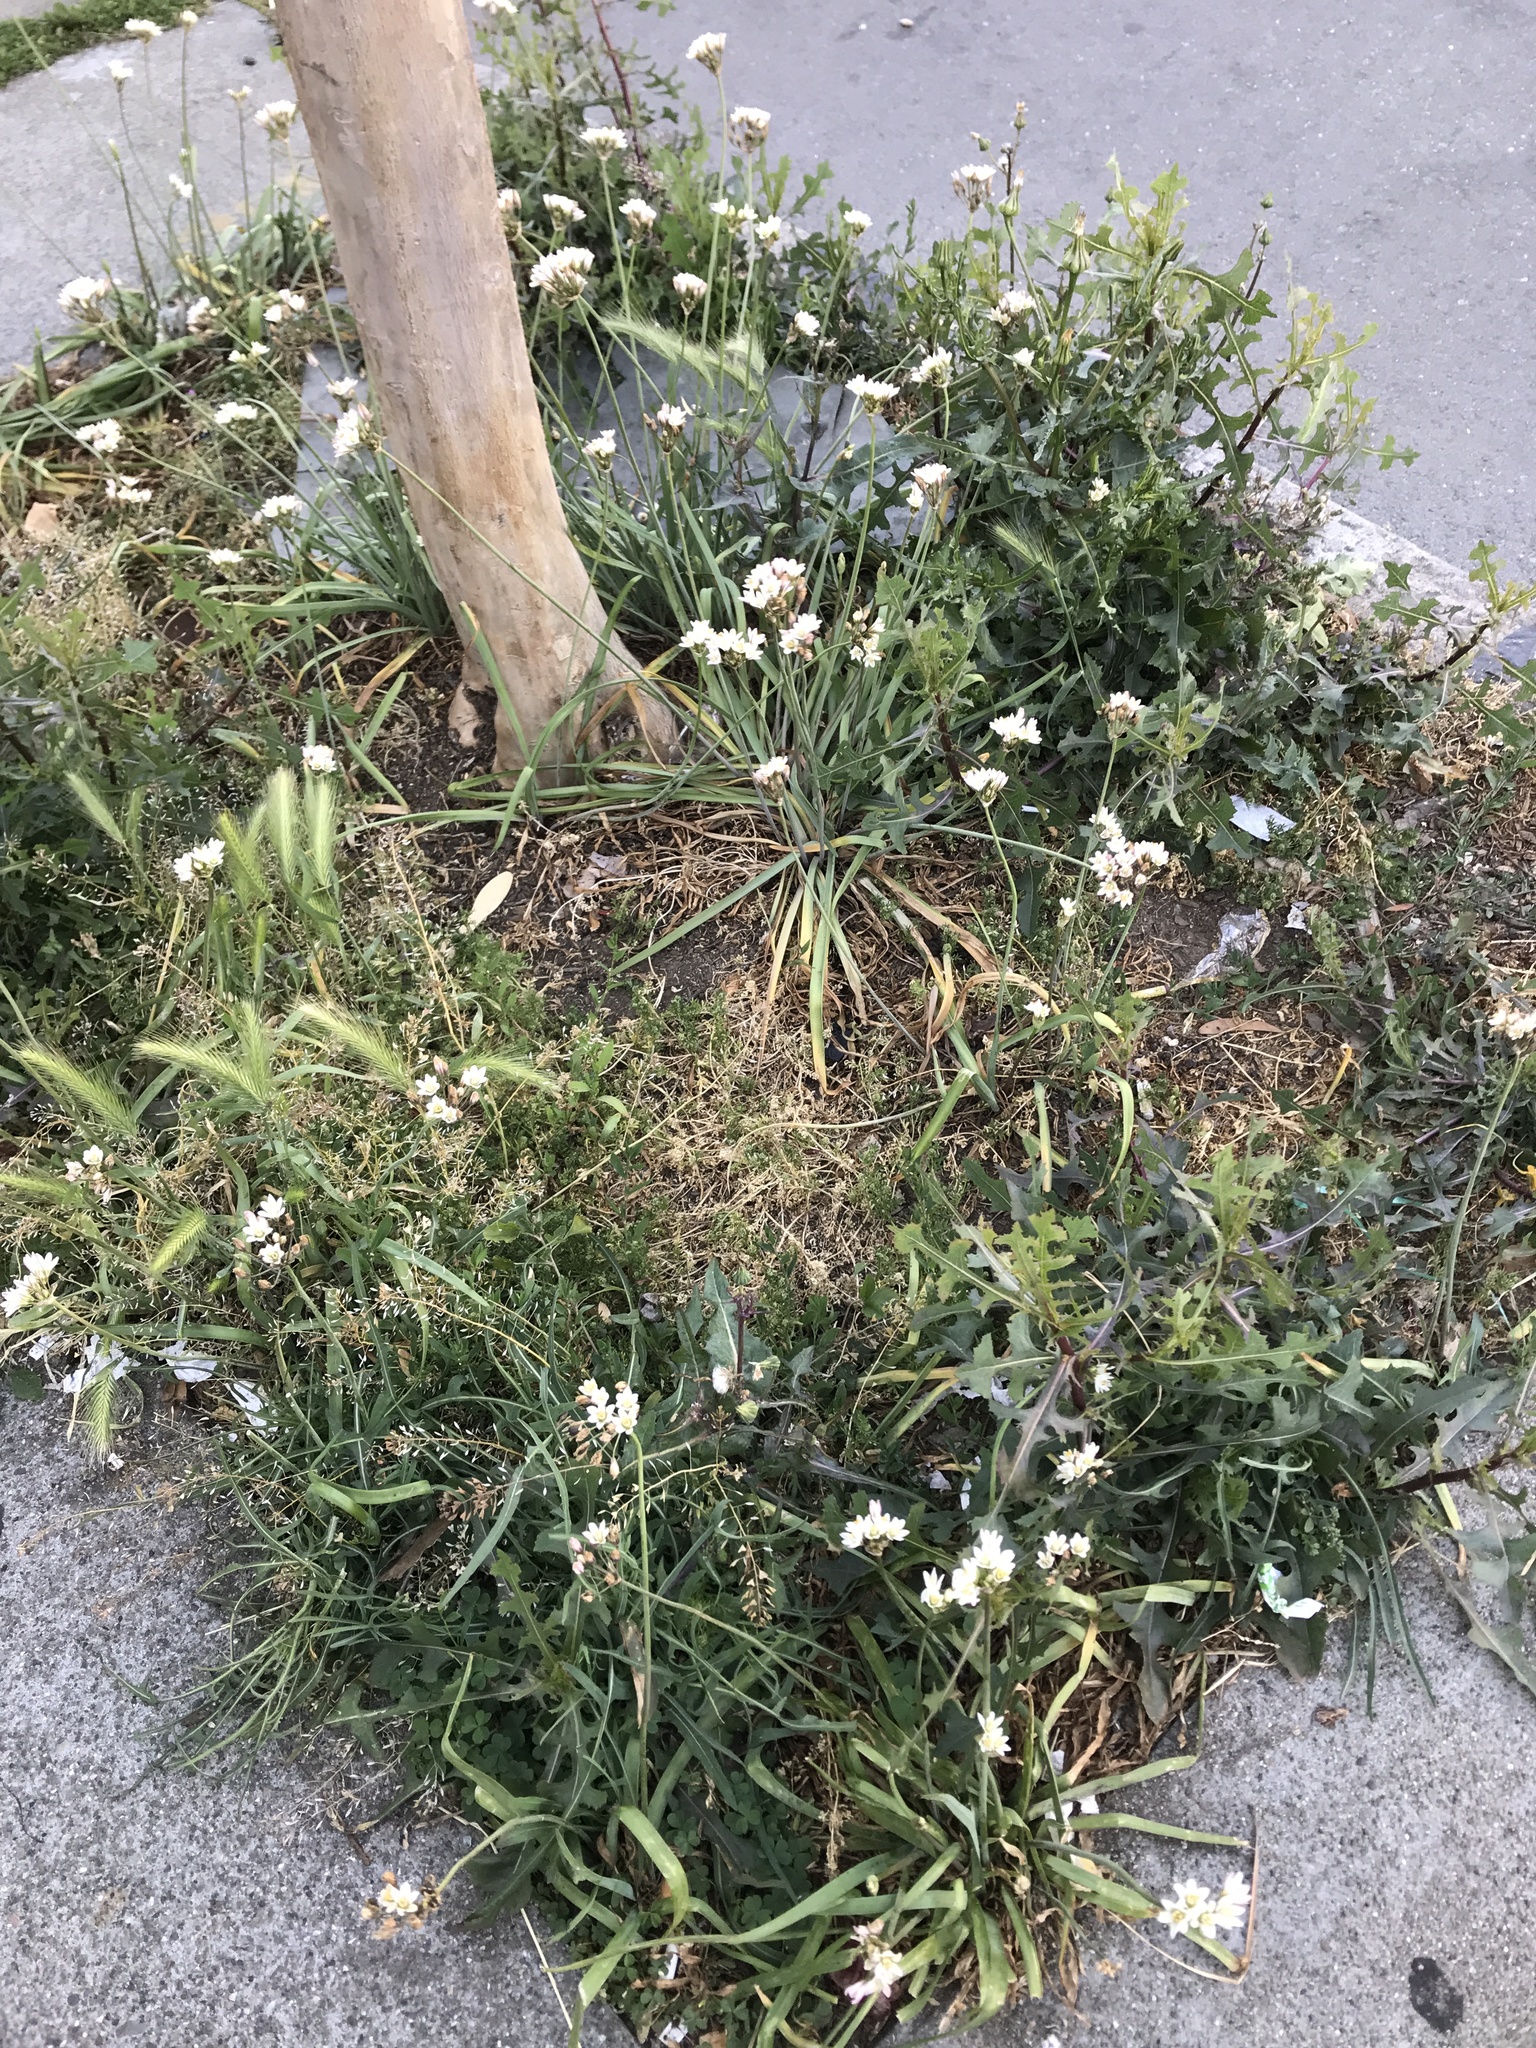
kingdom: Plantae
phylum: Tracheophyta
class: Liliopsida
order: Asparagales
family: Amaryllidaceae
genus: Allium
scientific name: Allium neapolitanum
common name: Neapolitan garlic
